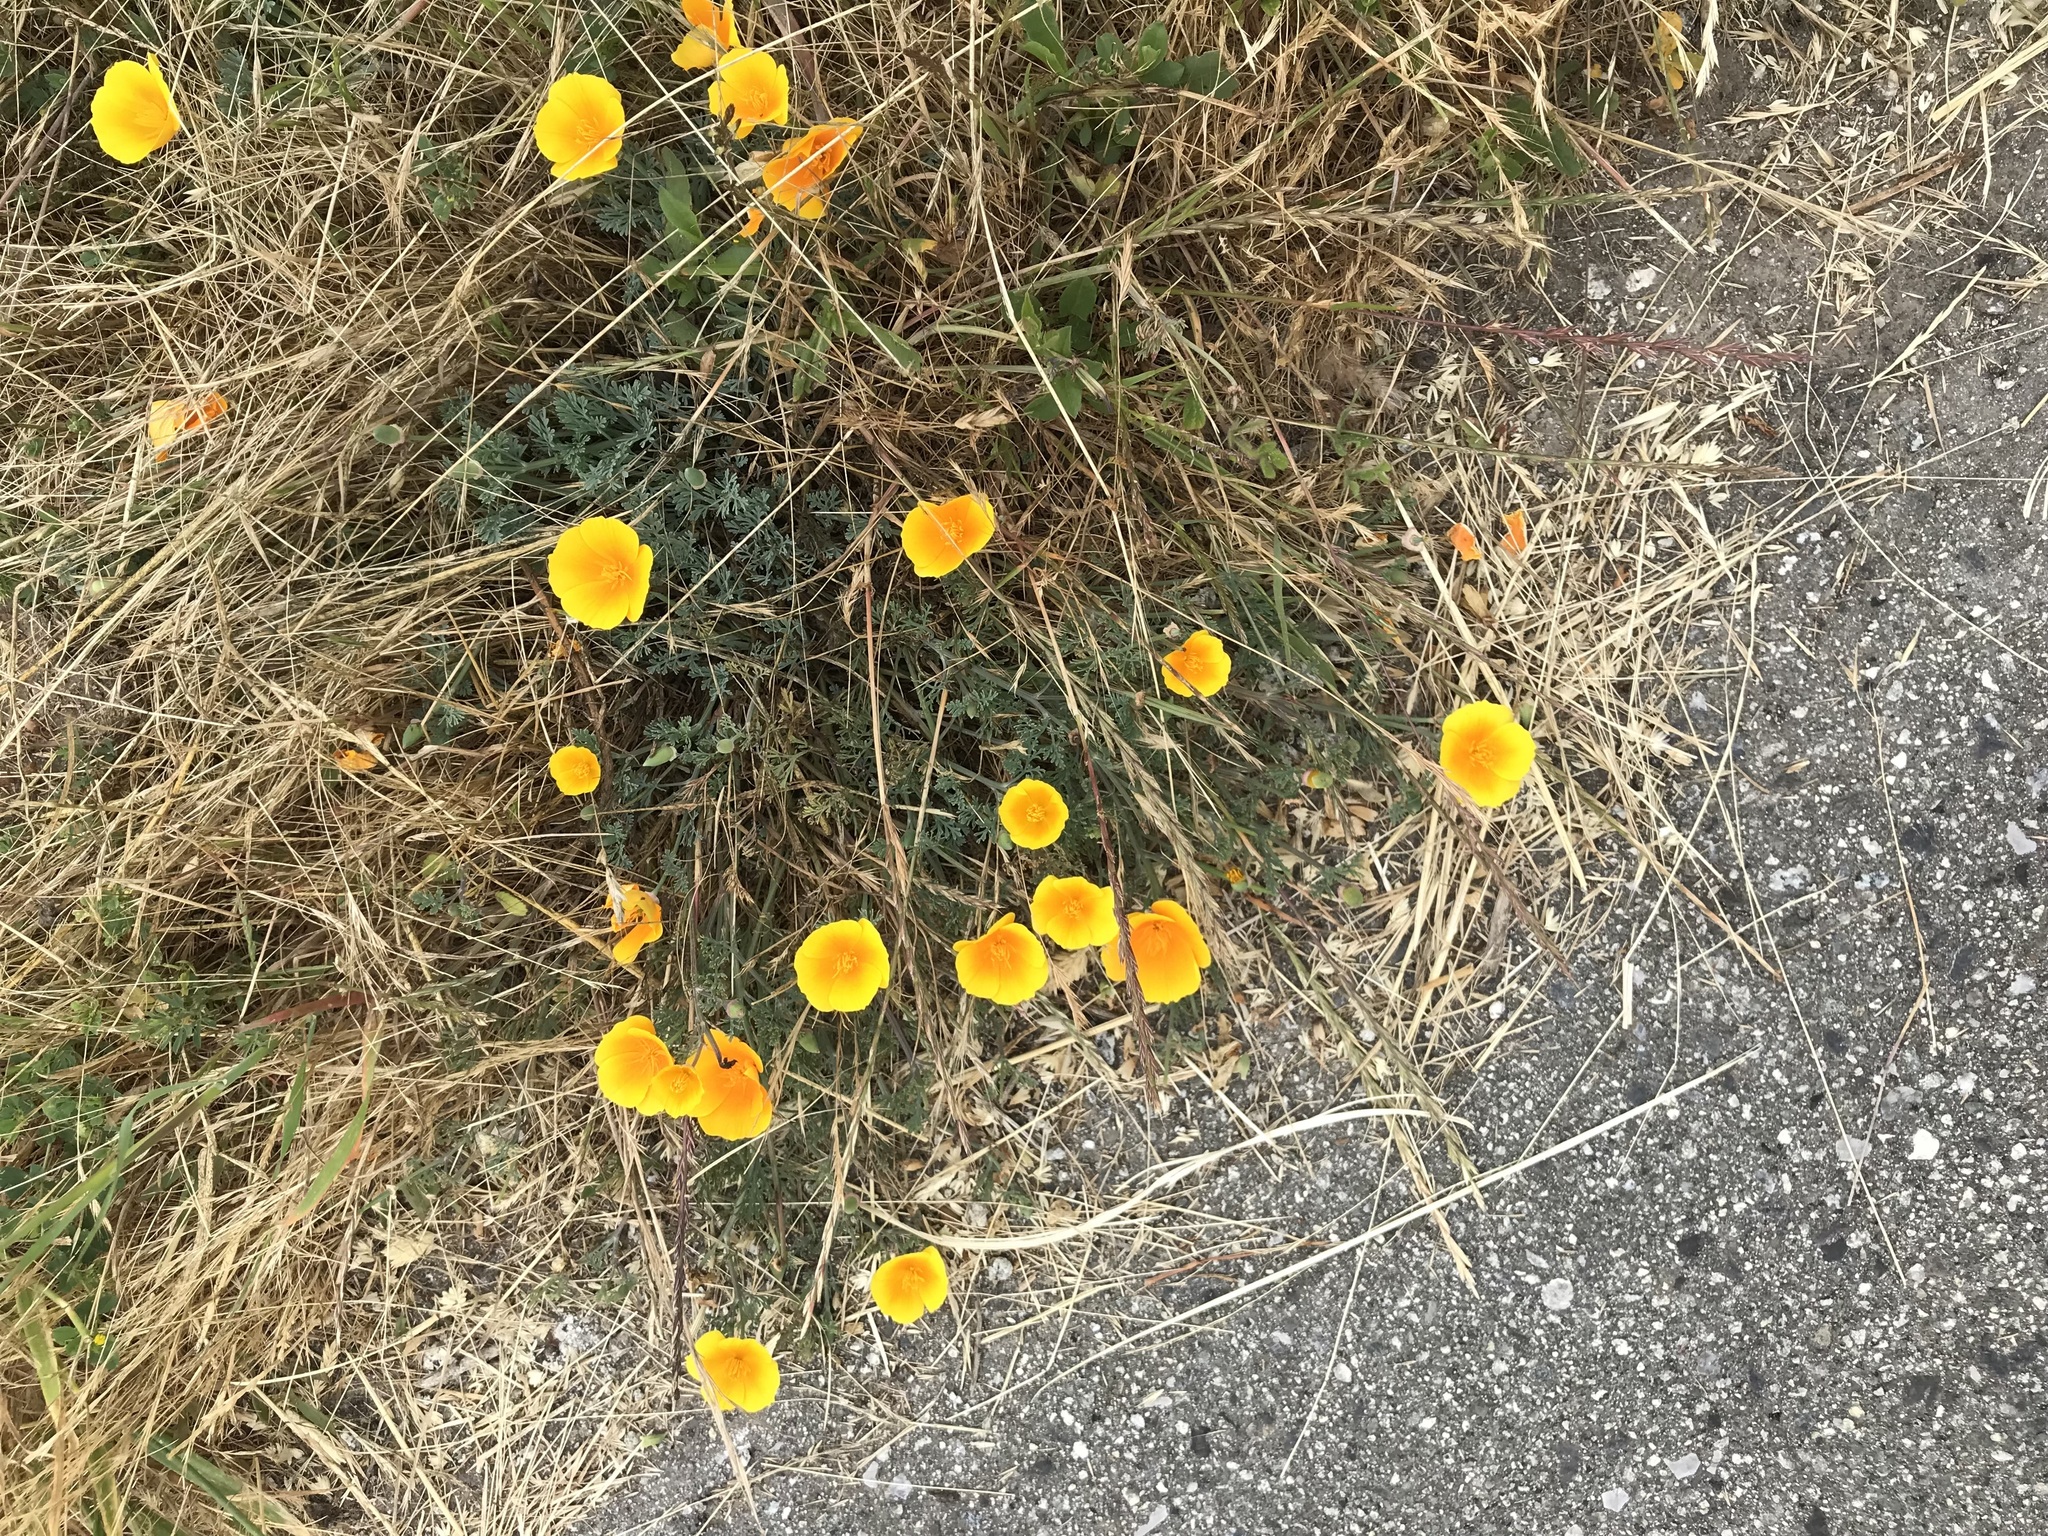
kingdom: Plantae
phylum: Tracheophyta
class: Magnoliopsida
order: Ranunculales
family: Papaveraceae
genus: Eschscholzia
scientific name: Eschscholzia californica
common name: California poppy
